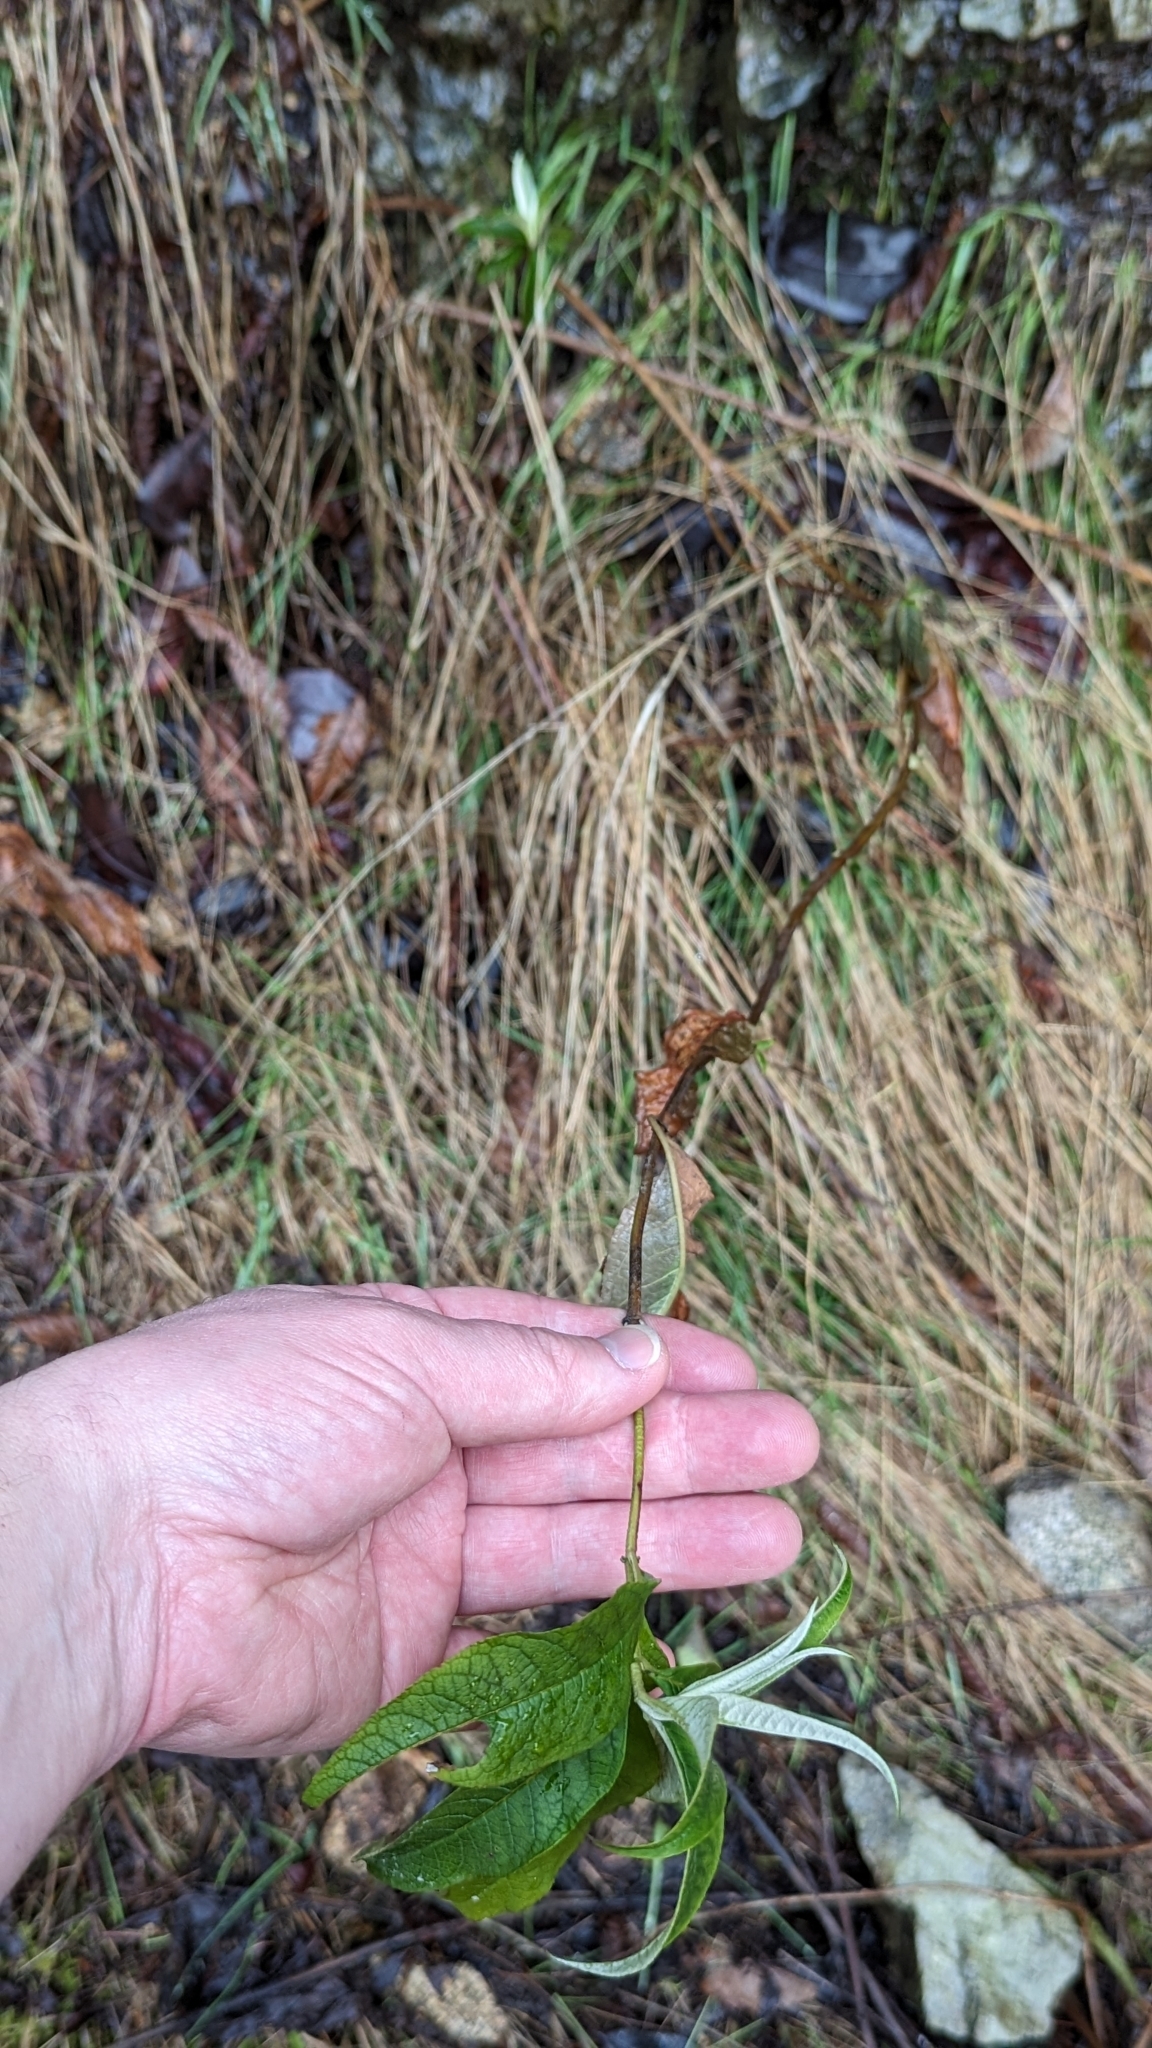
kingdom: Plantae
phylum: Tracheophyta
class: Magnoliopsida
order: Lamiales
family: Scrophulariaceae
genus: Buddleja
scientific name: Buddleja davidii
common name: Butterfly-bush
